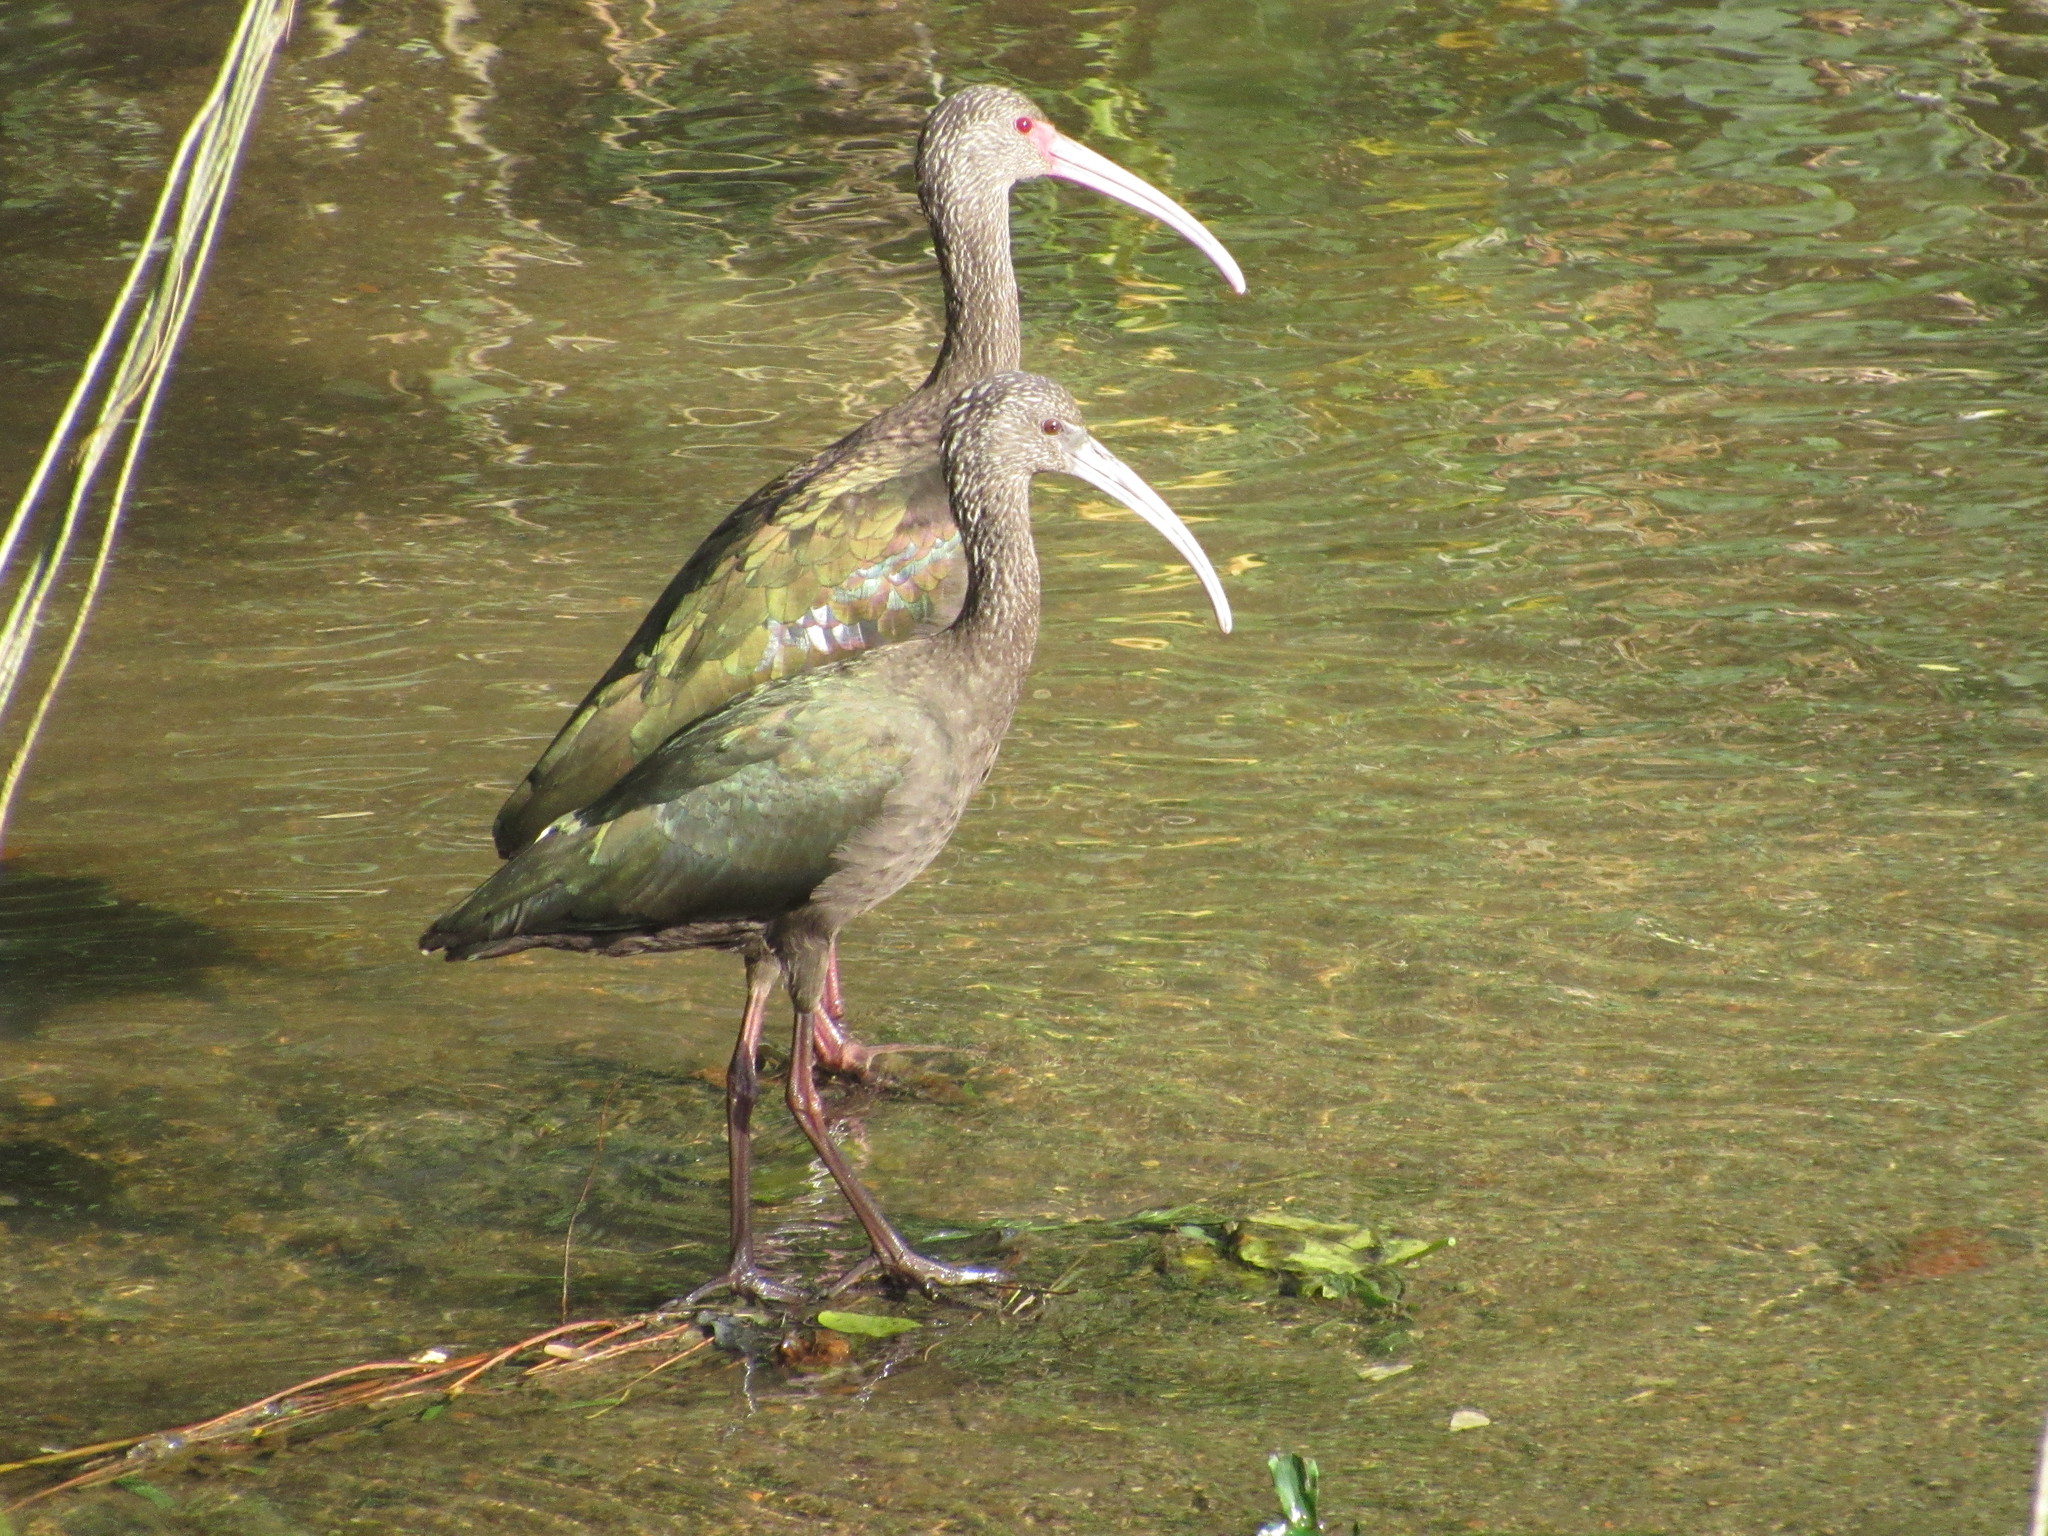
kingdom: Animalia
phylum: Chordata
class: Aves
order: Pelecaniformes
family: Threskiornithidae
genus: Plegadis
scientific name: Plegadis chihi
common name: White-faced ibis
